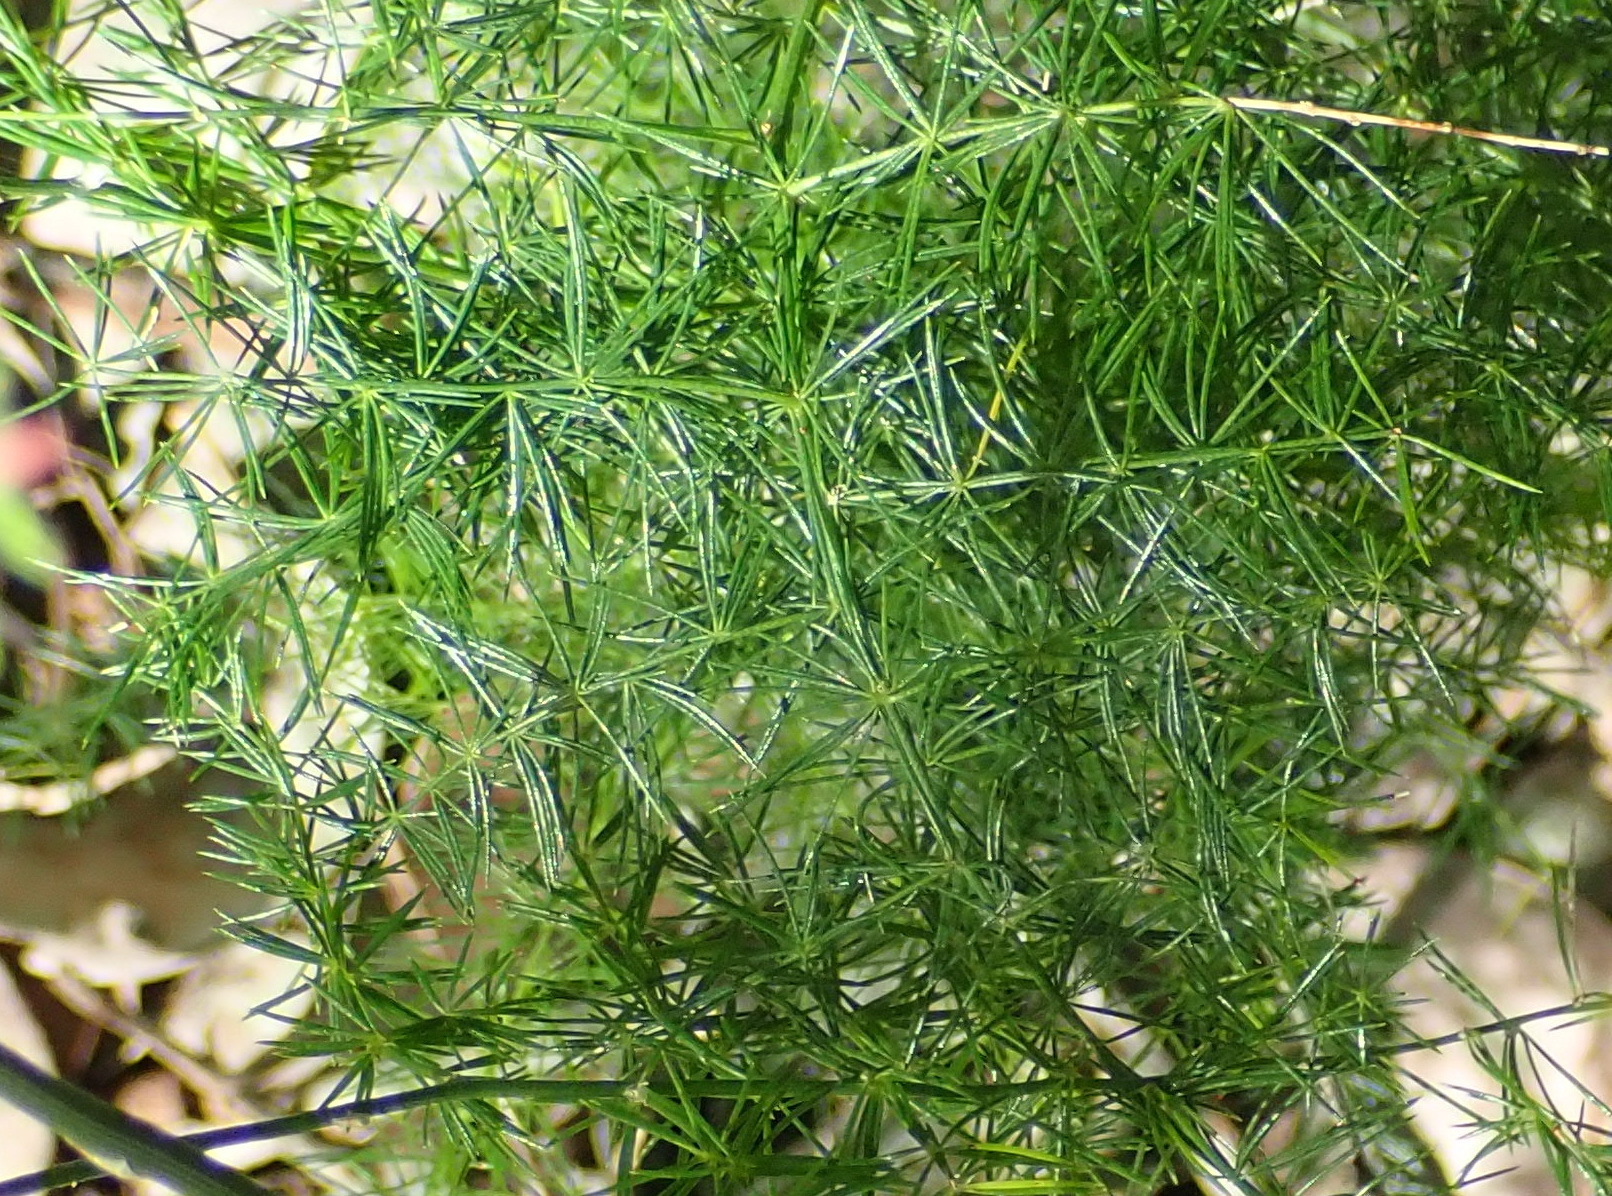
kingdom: Plantae
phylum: Tracheophyta
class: Liliopsida
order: Asparagales
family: Asparagaceae
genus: Asparagus
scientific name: Asparagus setaceus
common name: Common asparagus fern
